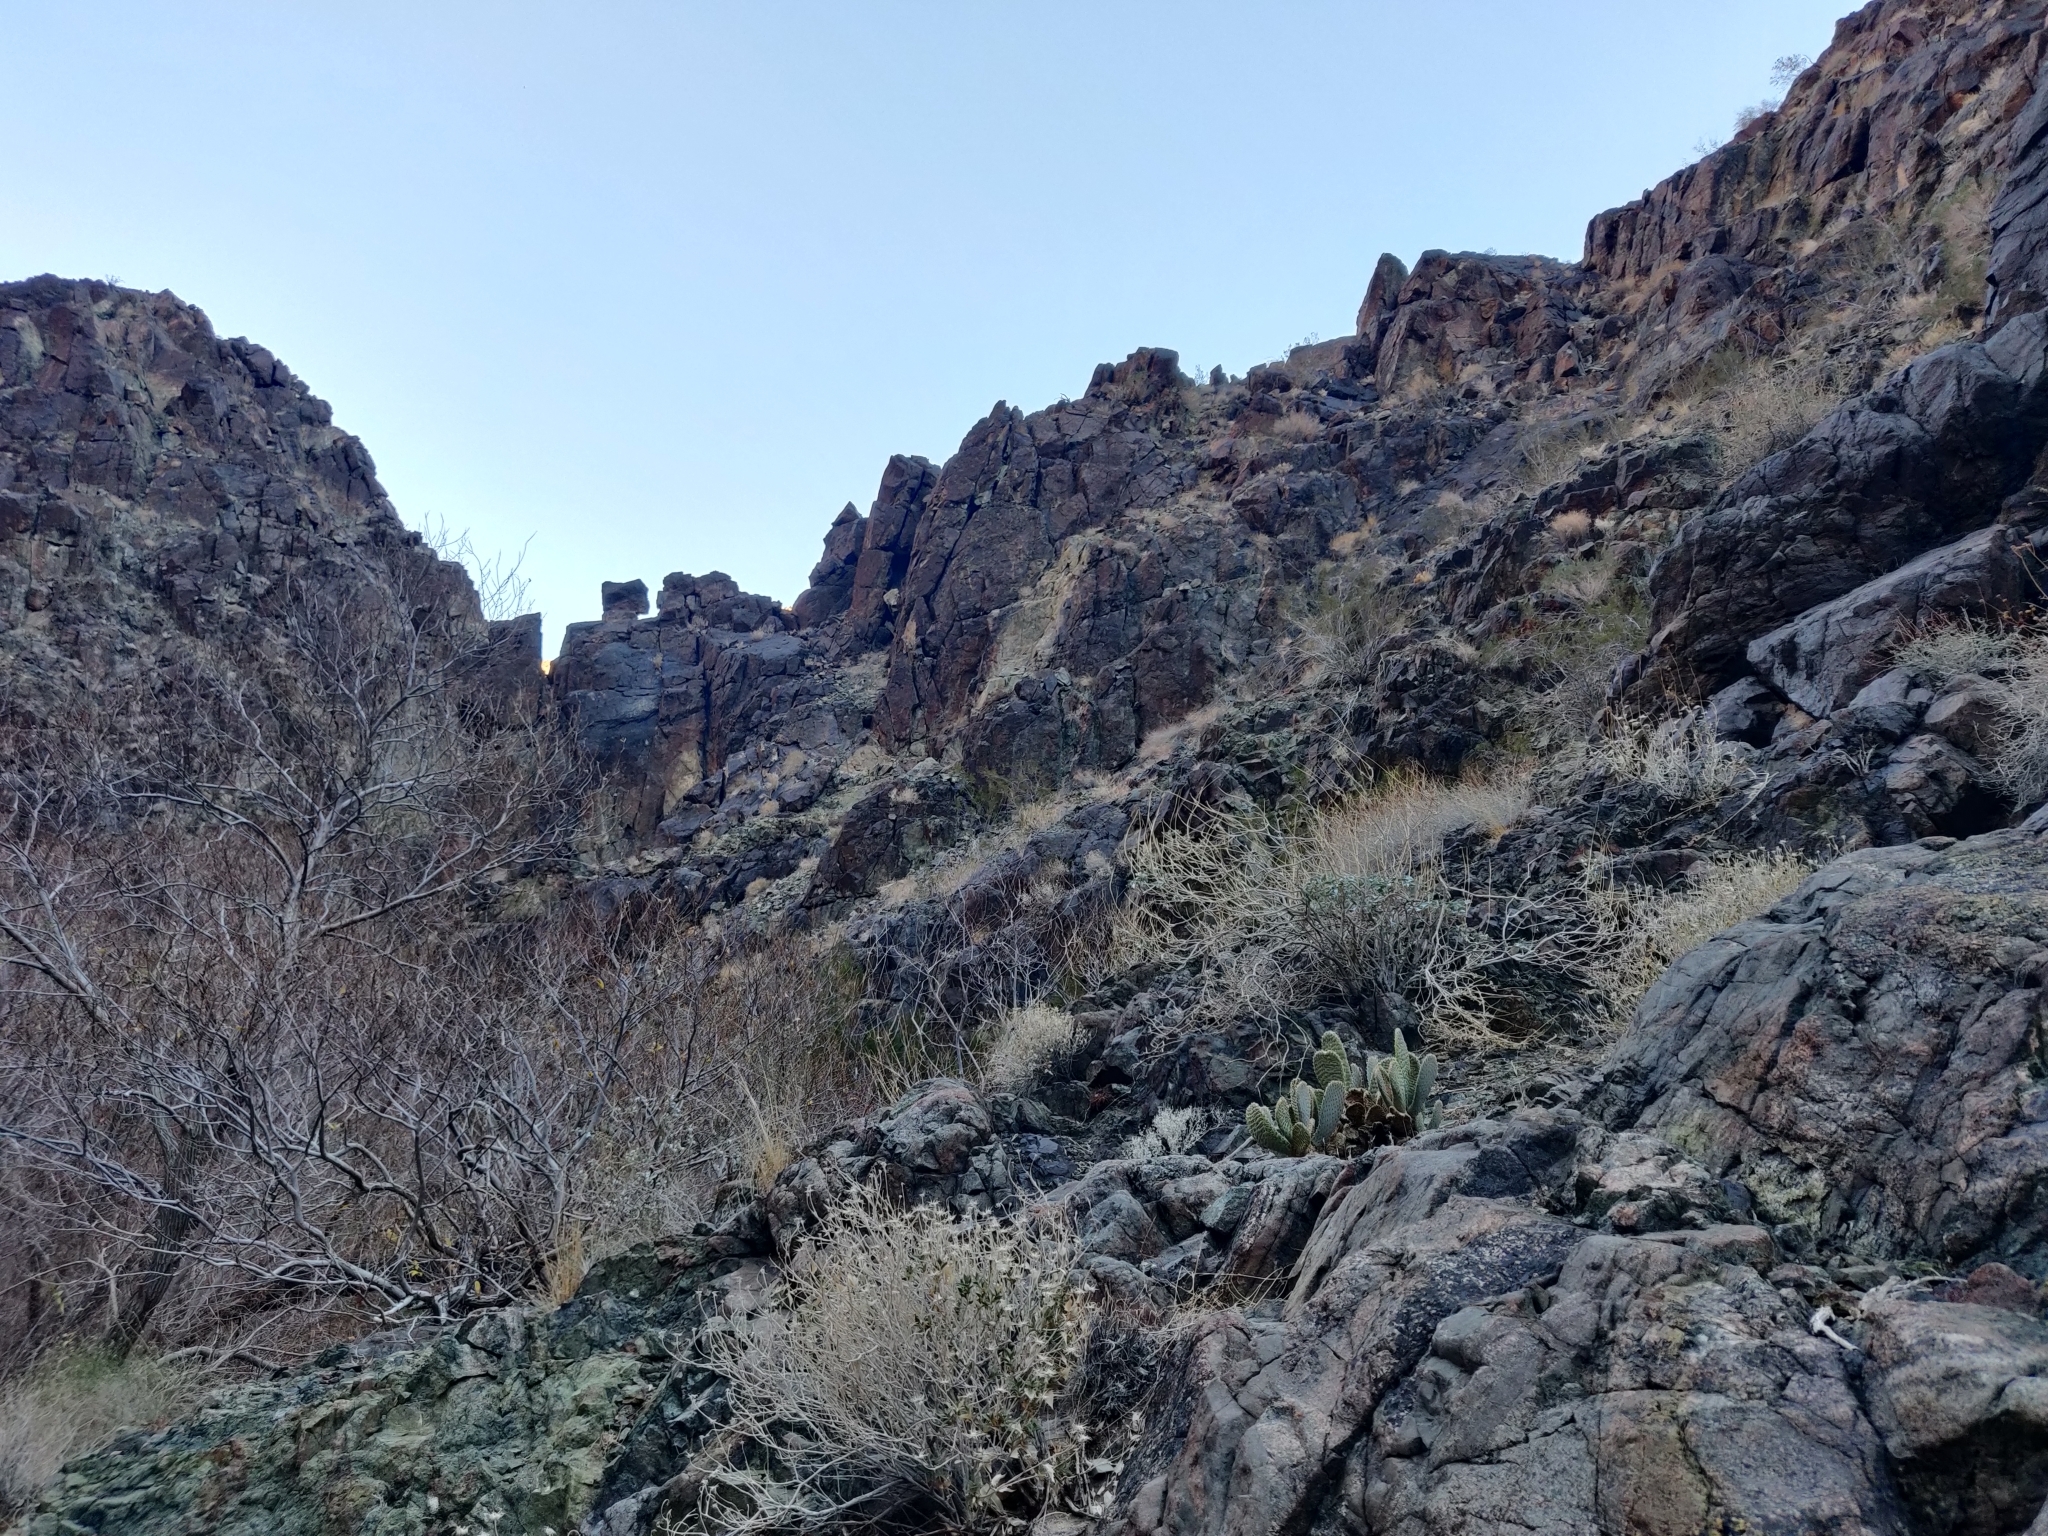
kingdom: Plantae
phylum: Tracheophyta
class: Magnoliopsida
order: Caryophyllales
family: Cactaceae
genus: Opuntia
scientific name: Opuntia basilaris
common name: Beavertail prickly-pear
